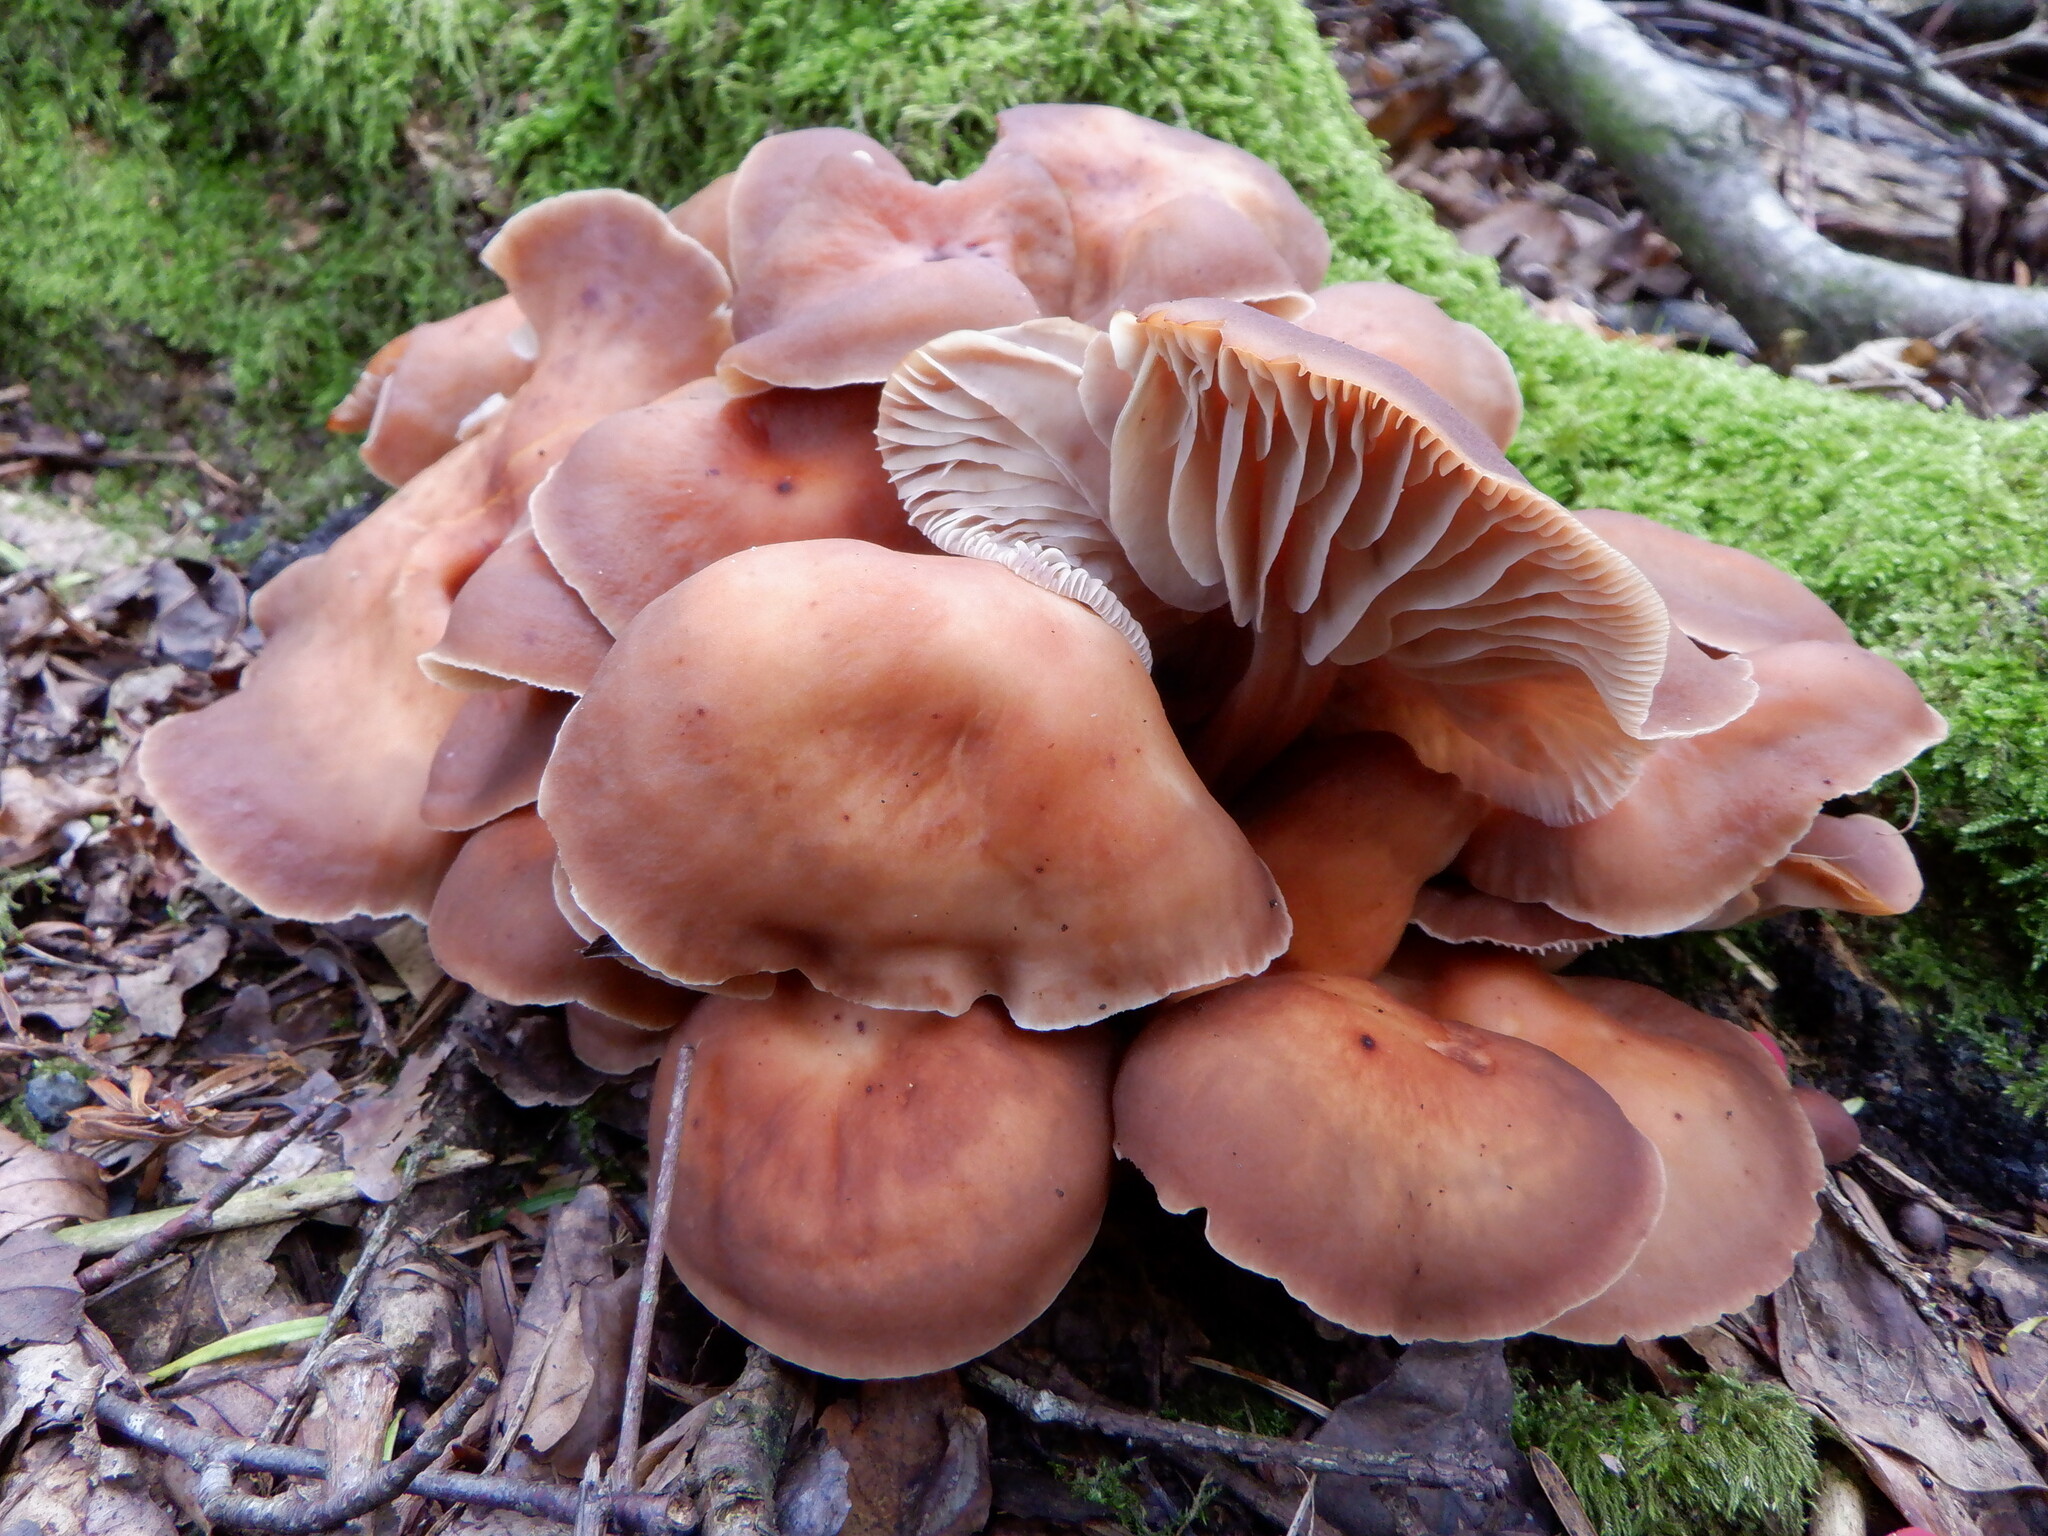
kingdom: Fungi
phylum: Basidiomycota
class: Agaricomycetes
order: Agaricales
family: Omphalotaceae
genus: Gymnopus
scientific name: Gymnopus fusipes
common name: Spindle shank
